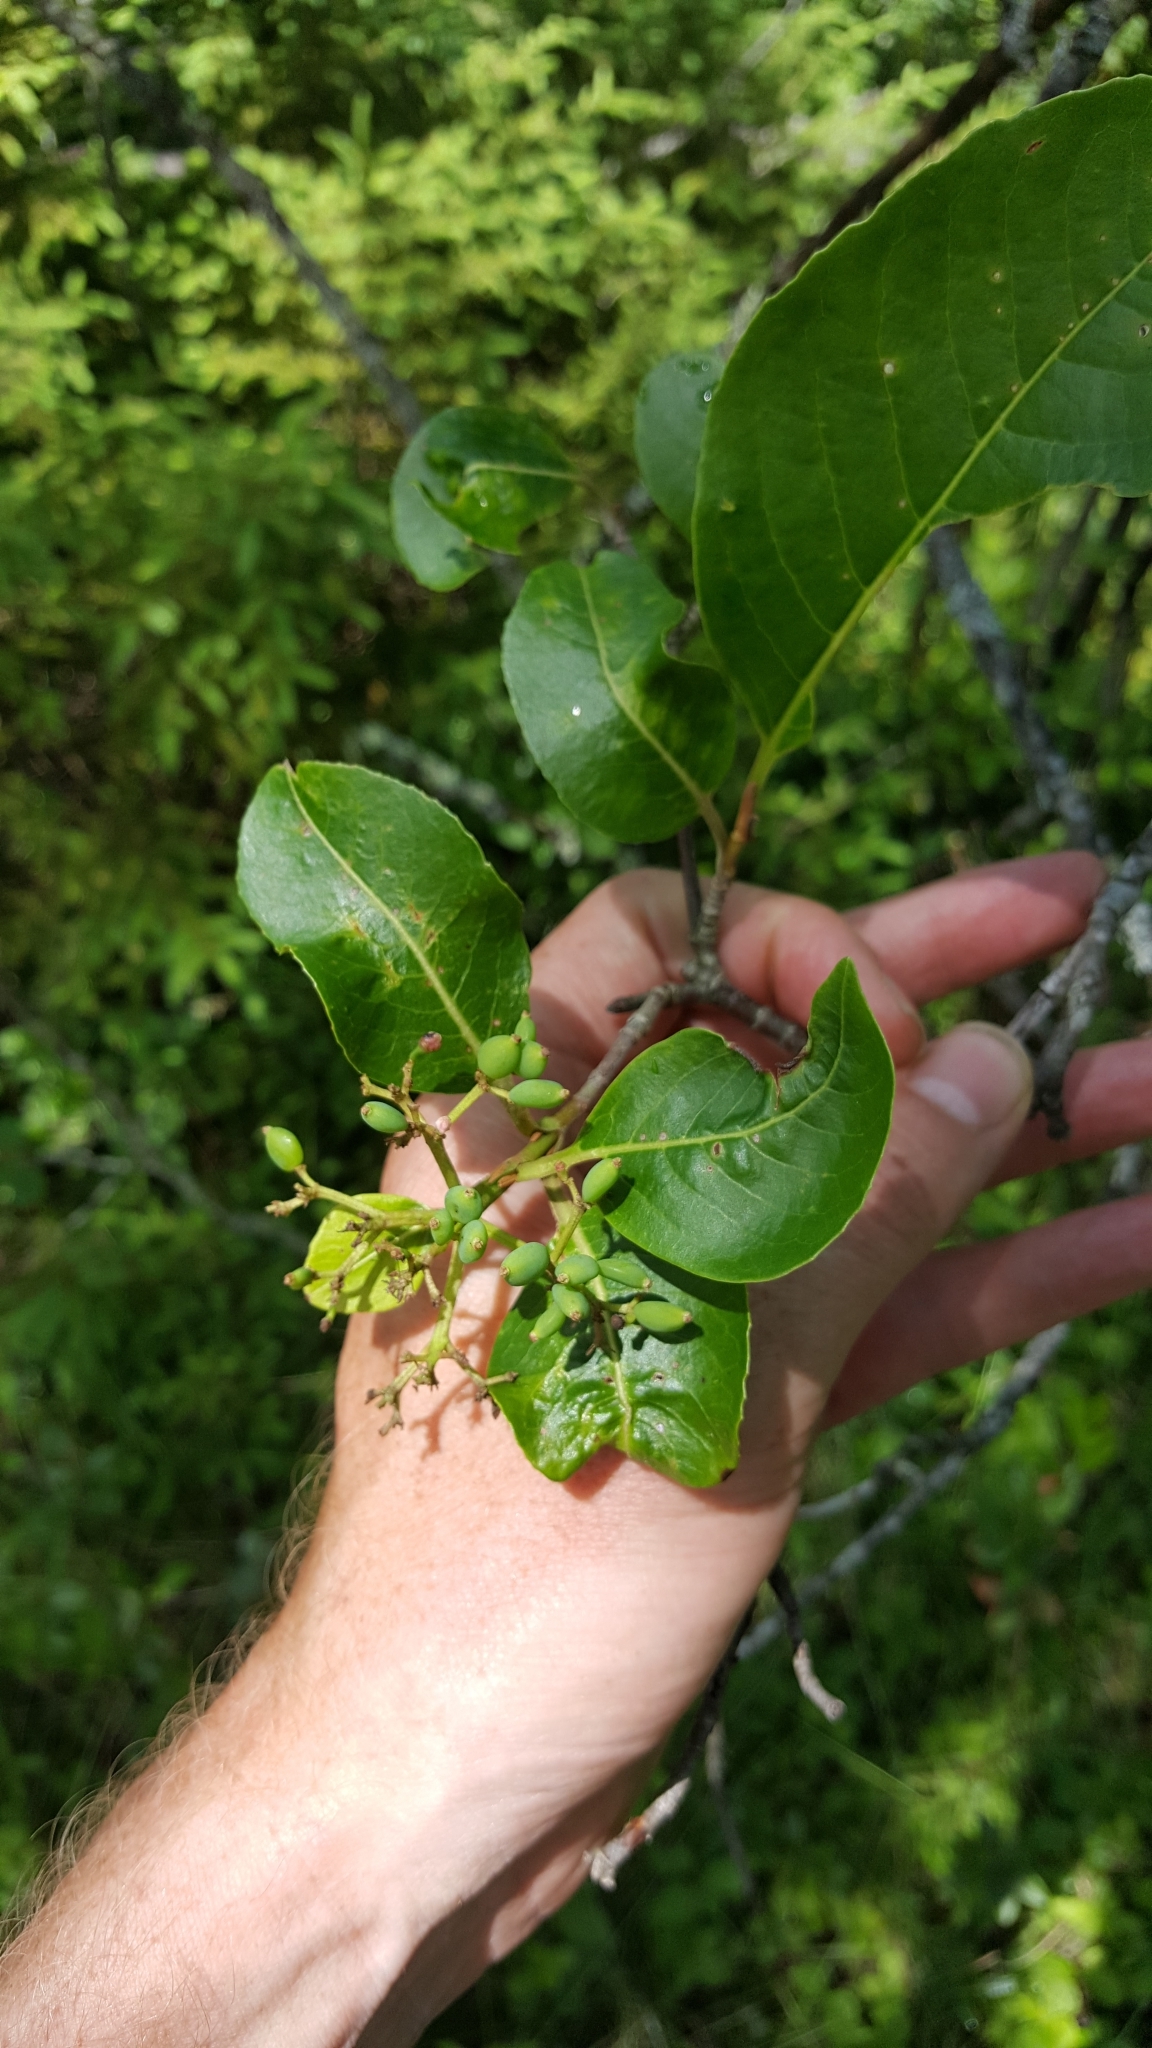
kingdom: Plantae
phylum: Tracheophyta
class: Magnoliopsida
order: Dipsacales
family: Viburnaceae
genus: Viburnum
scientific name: Viburnum cassinoides
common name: Swamp haw
